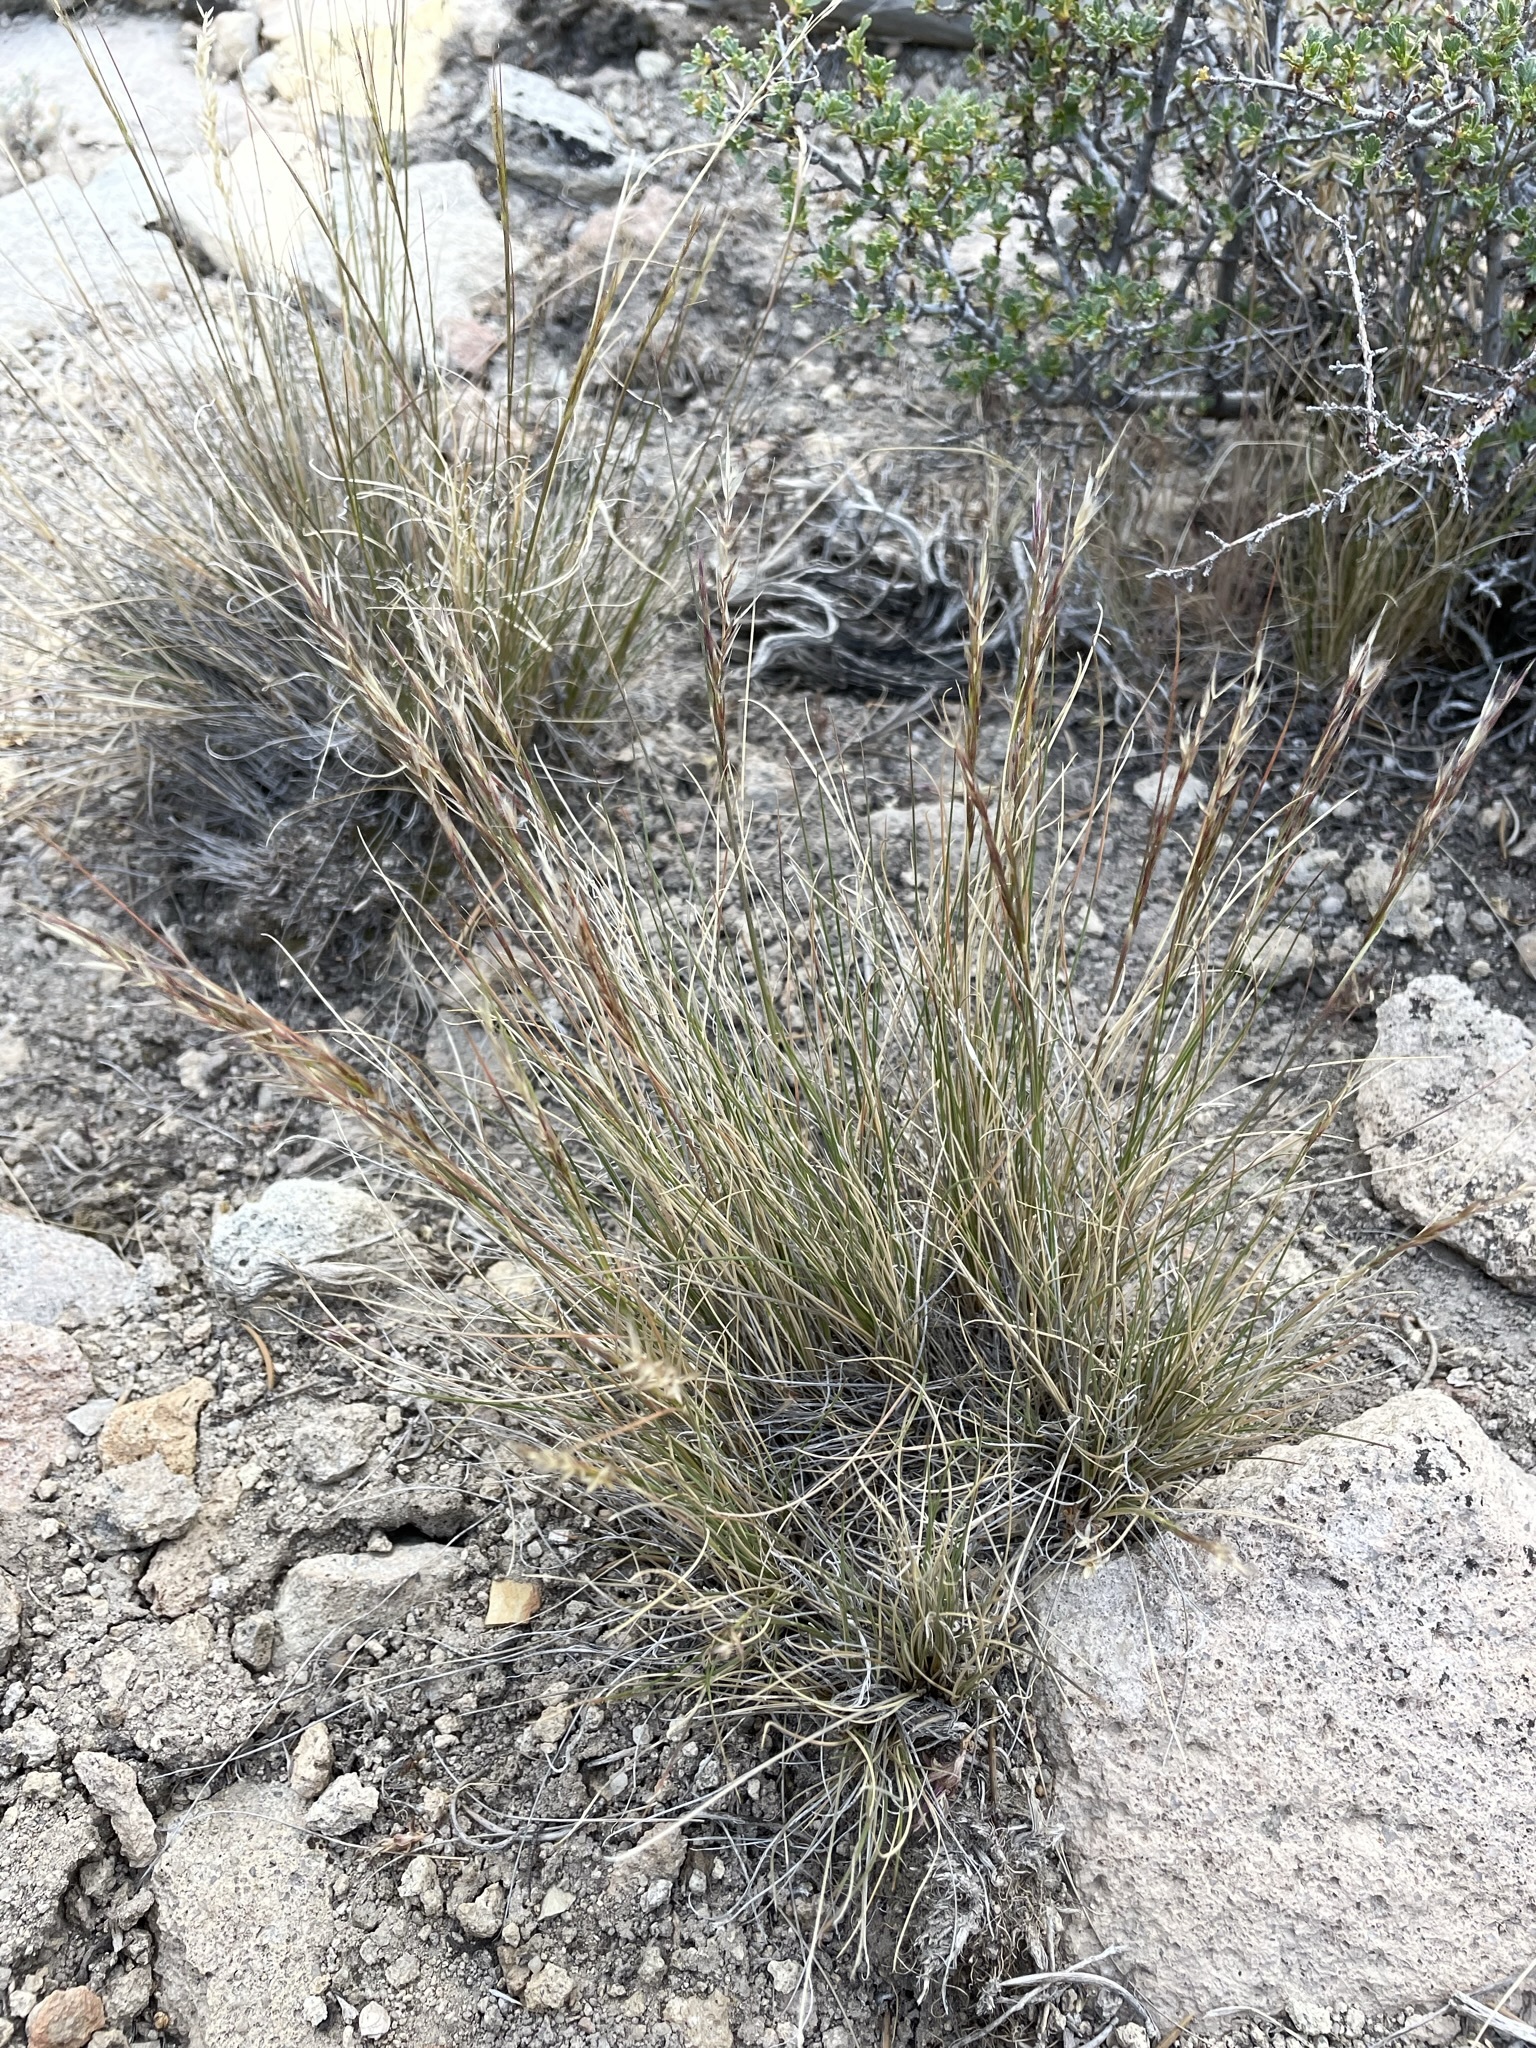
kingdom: Plantae
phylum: Tracheophyta
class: Liliopsida
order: Poales
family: Poaceae
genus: Eriocoma
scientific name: Eriocoma webberi
